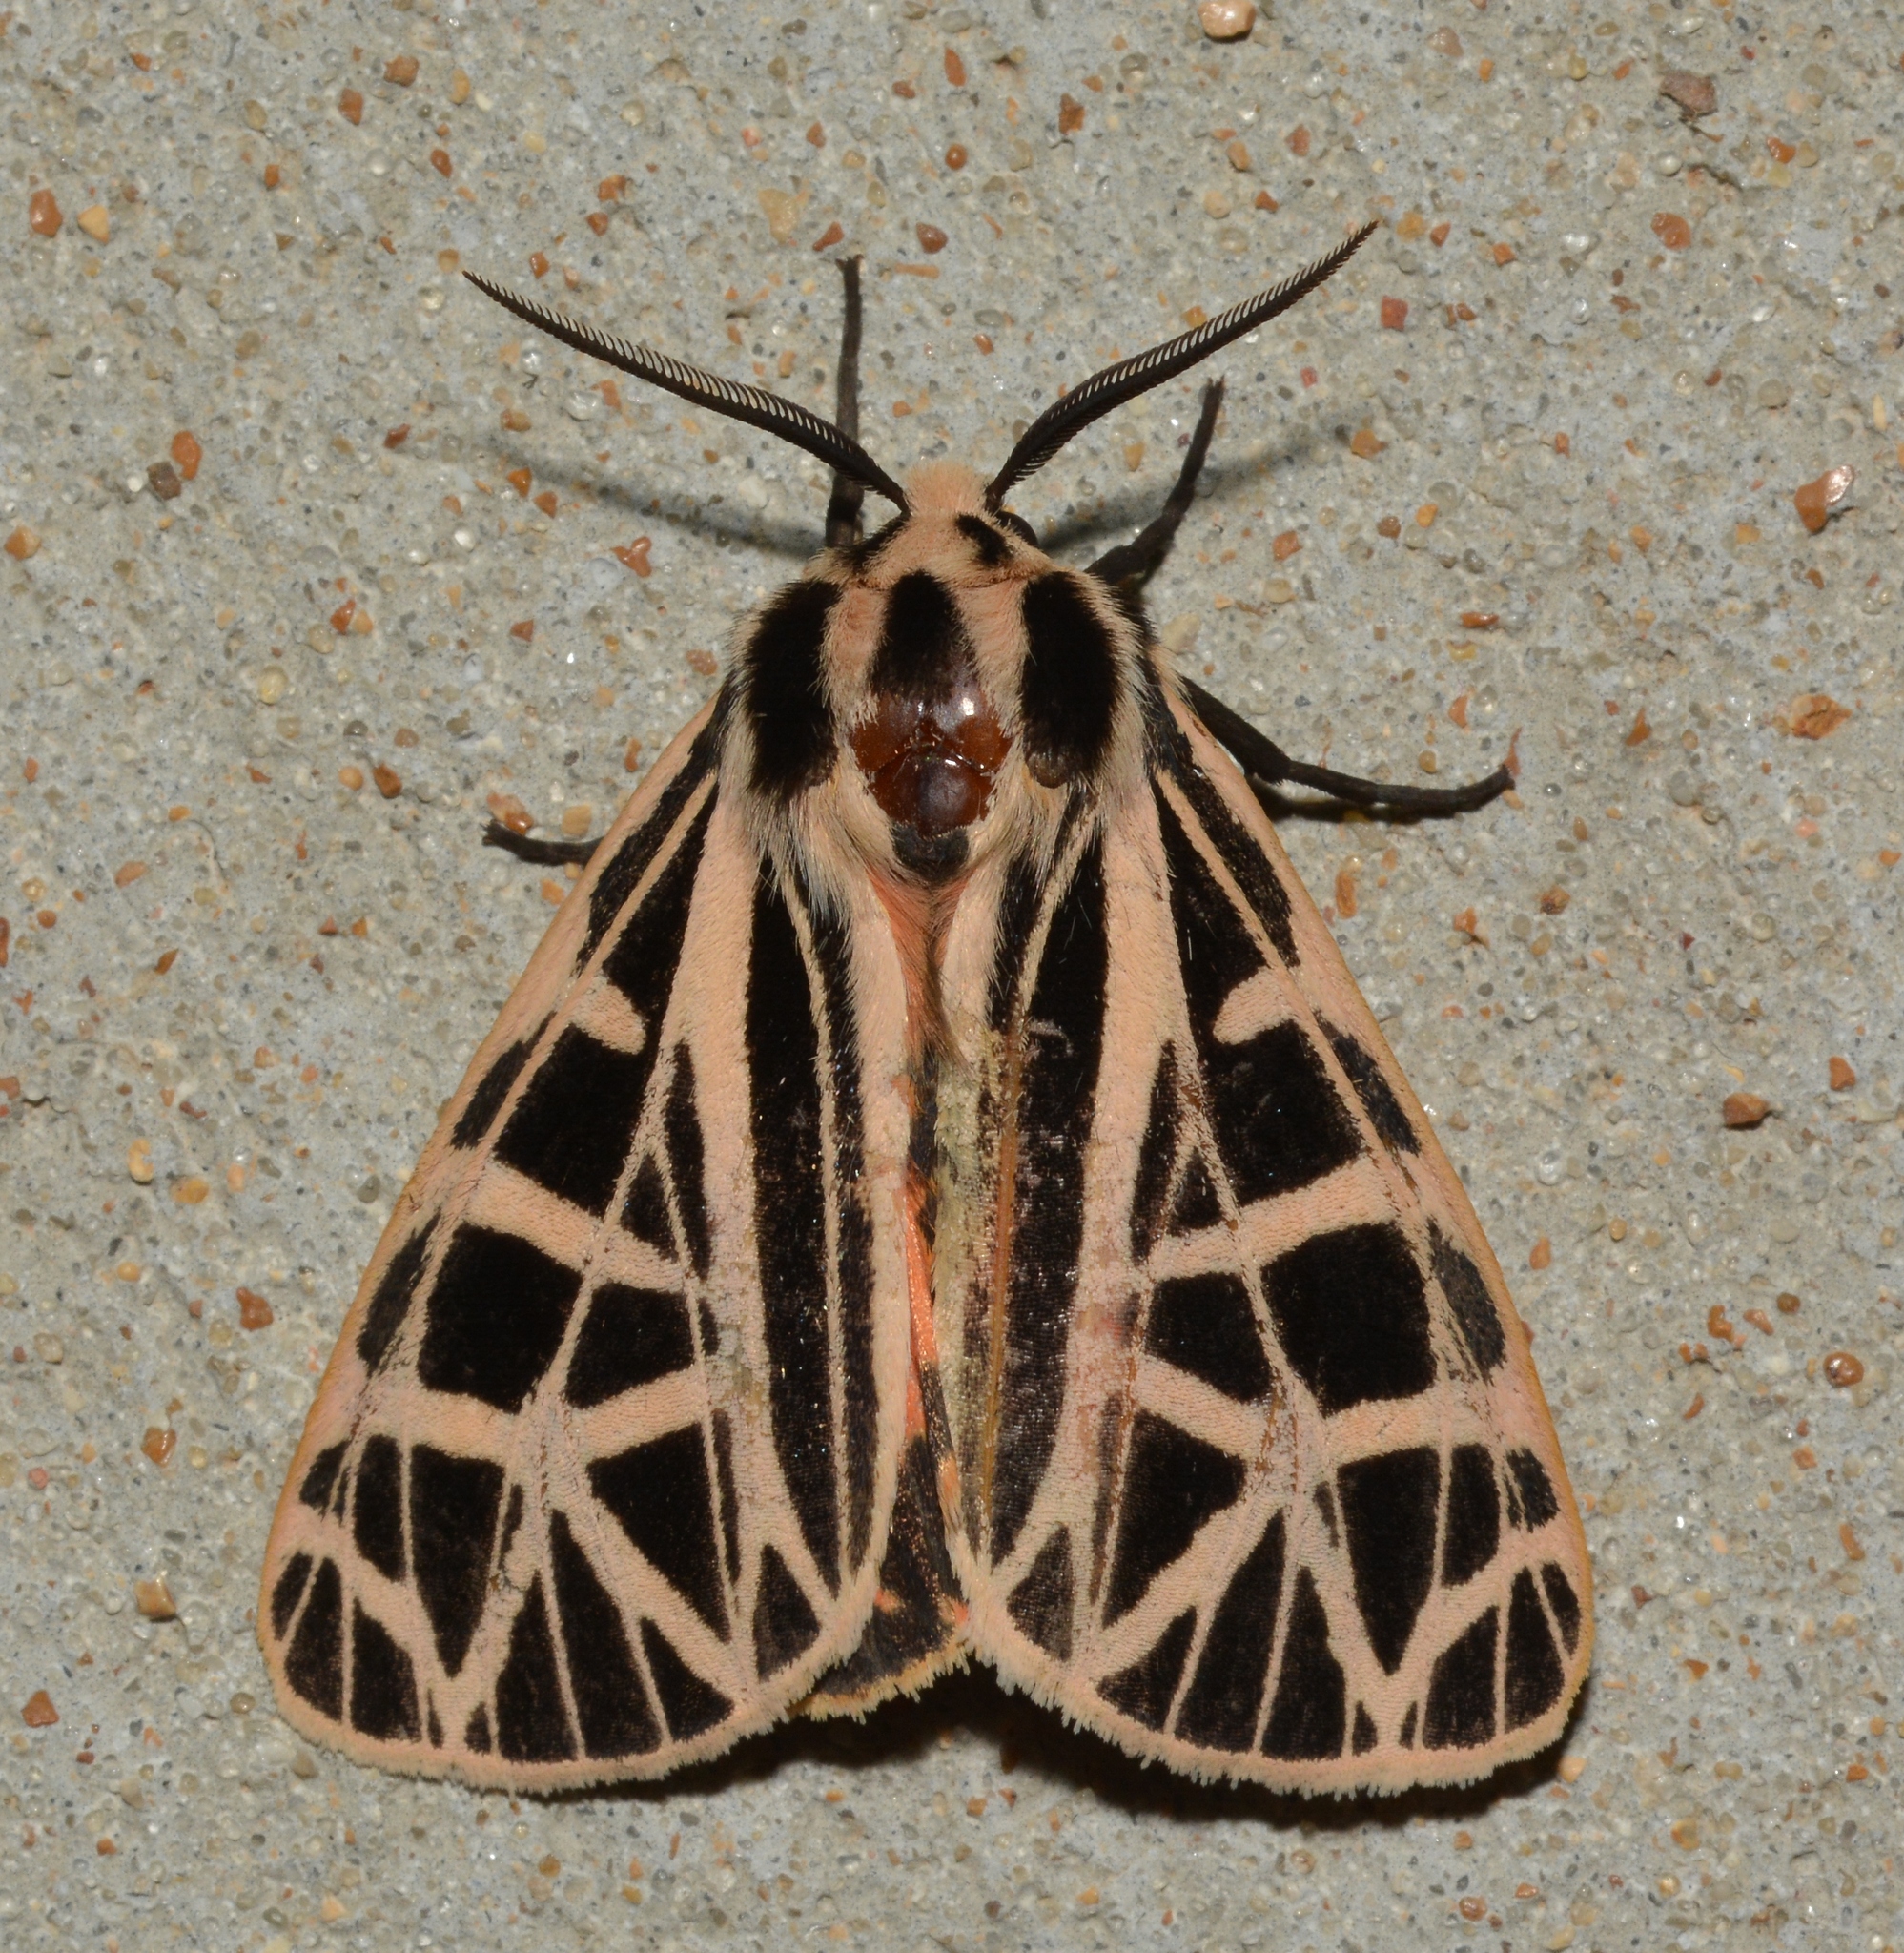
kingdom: Animalia
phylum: Arthropoda
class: Insecta
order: Lepidoptera
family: Erebidae
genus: Grammia
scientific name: Grammia parthenice
